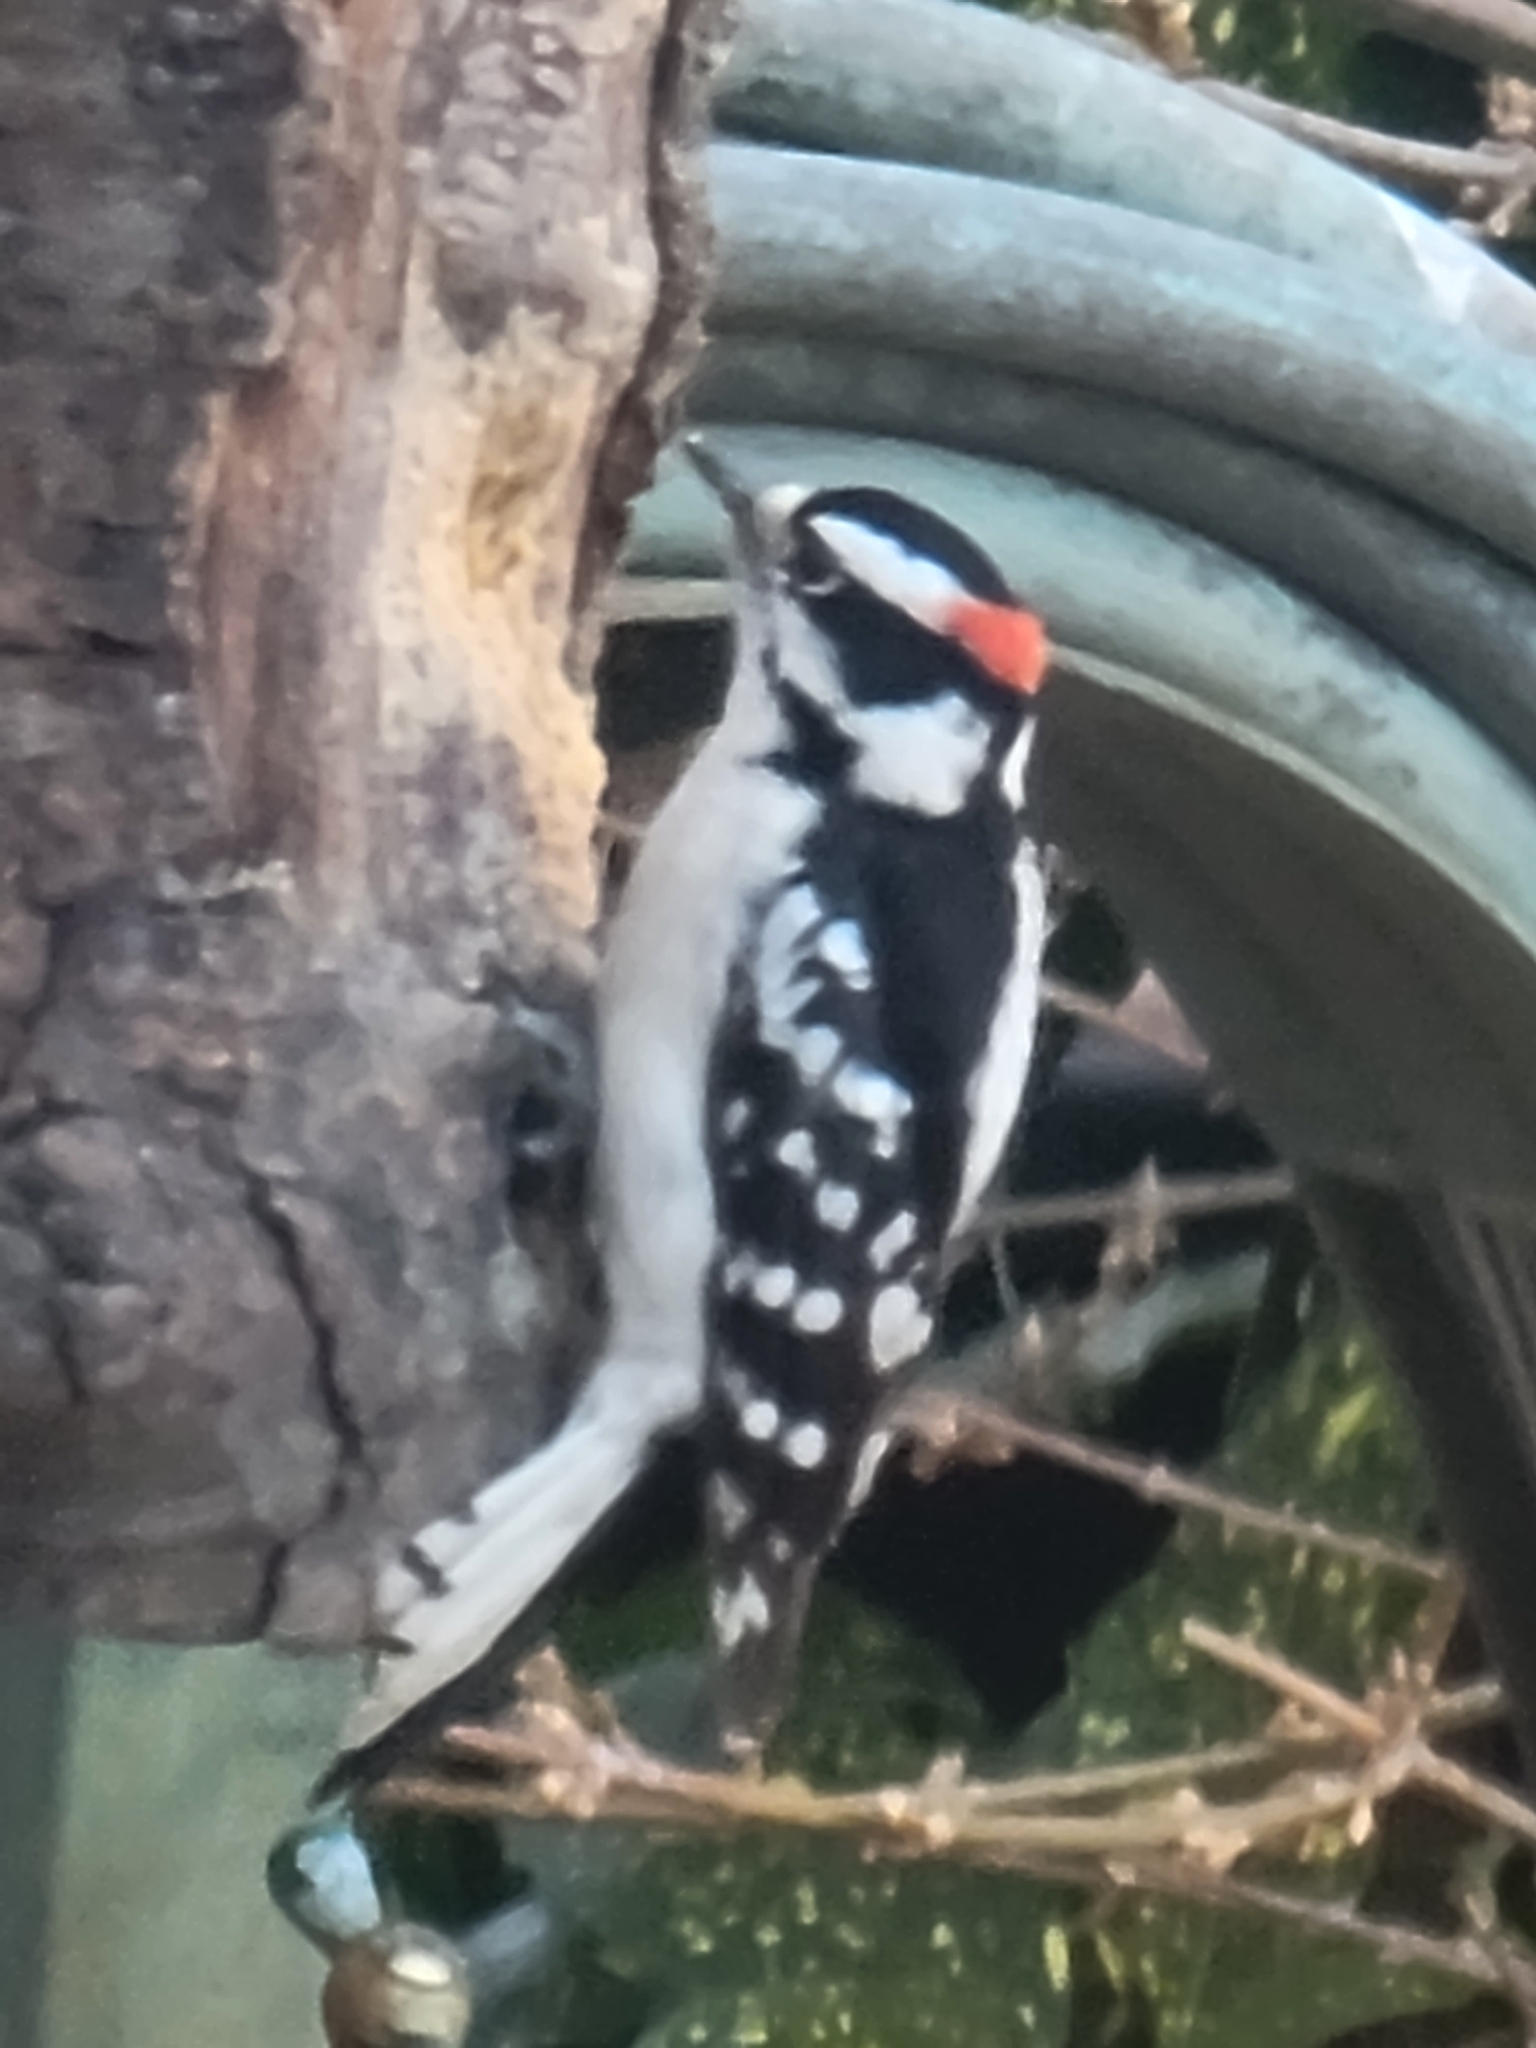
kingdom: Animalia
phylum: Chordata
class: Aves
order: Piciformes
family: Picidae
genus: Dryobates
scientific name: Dryobates pubescens
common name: Downy woodpecker
